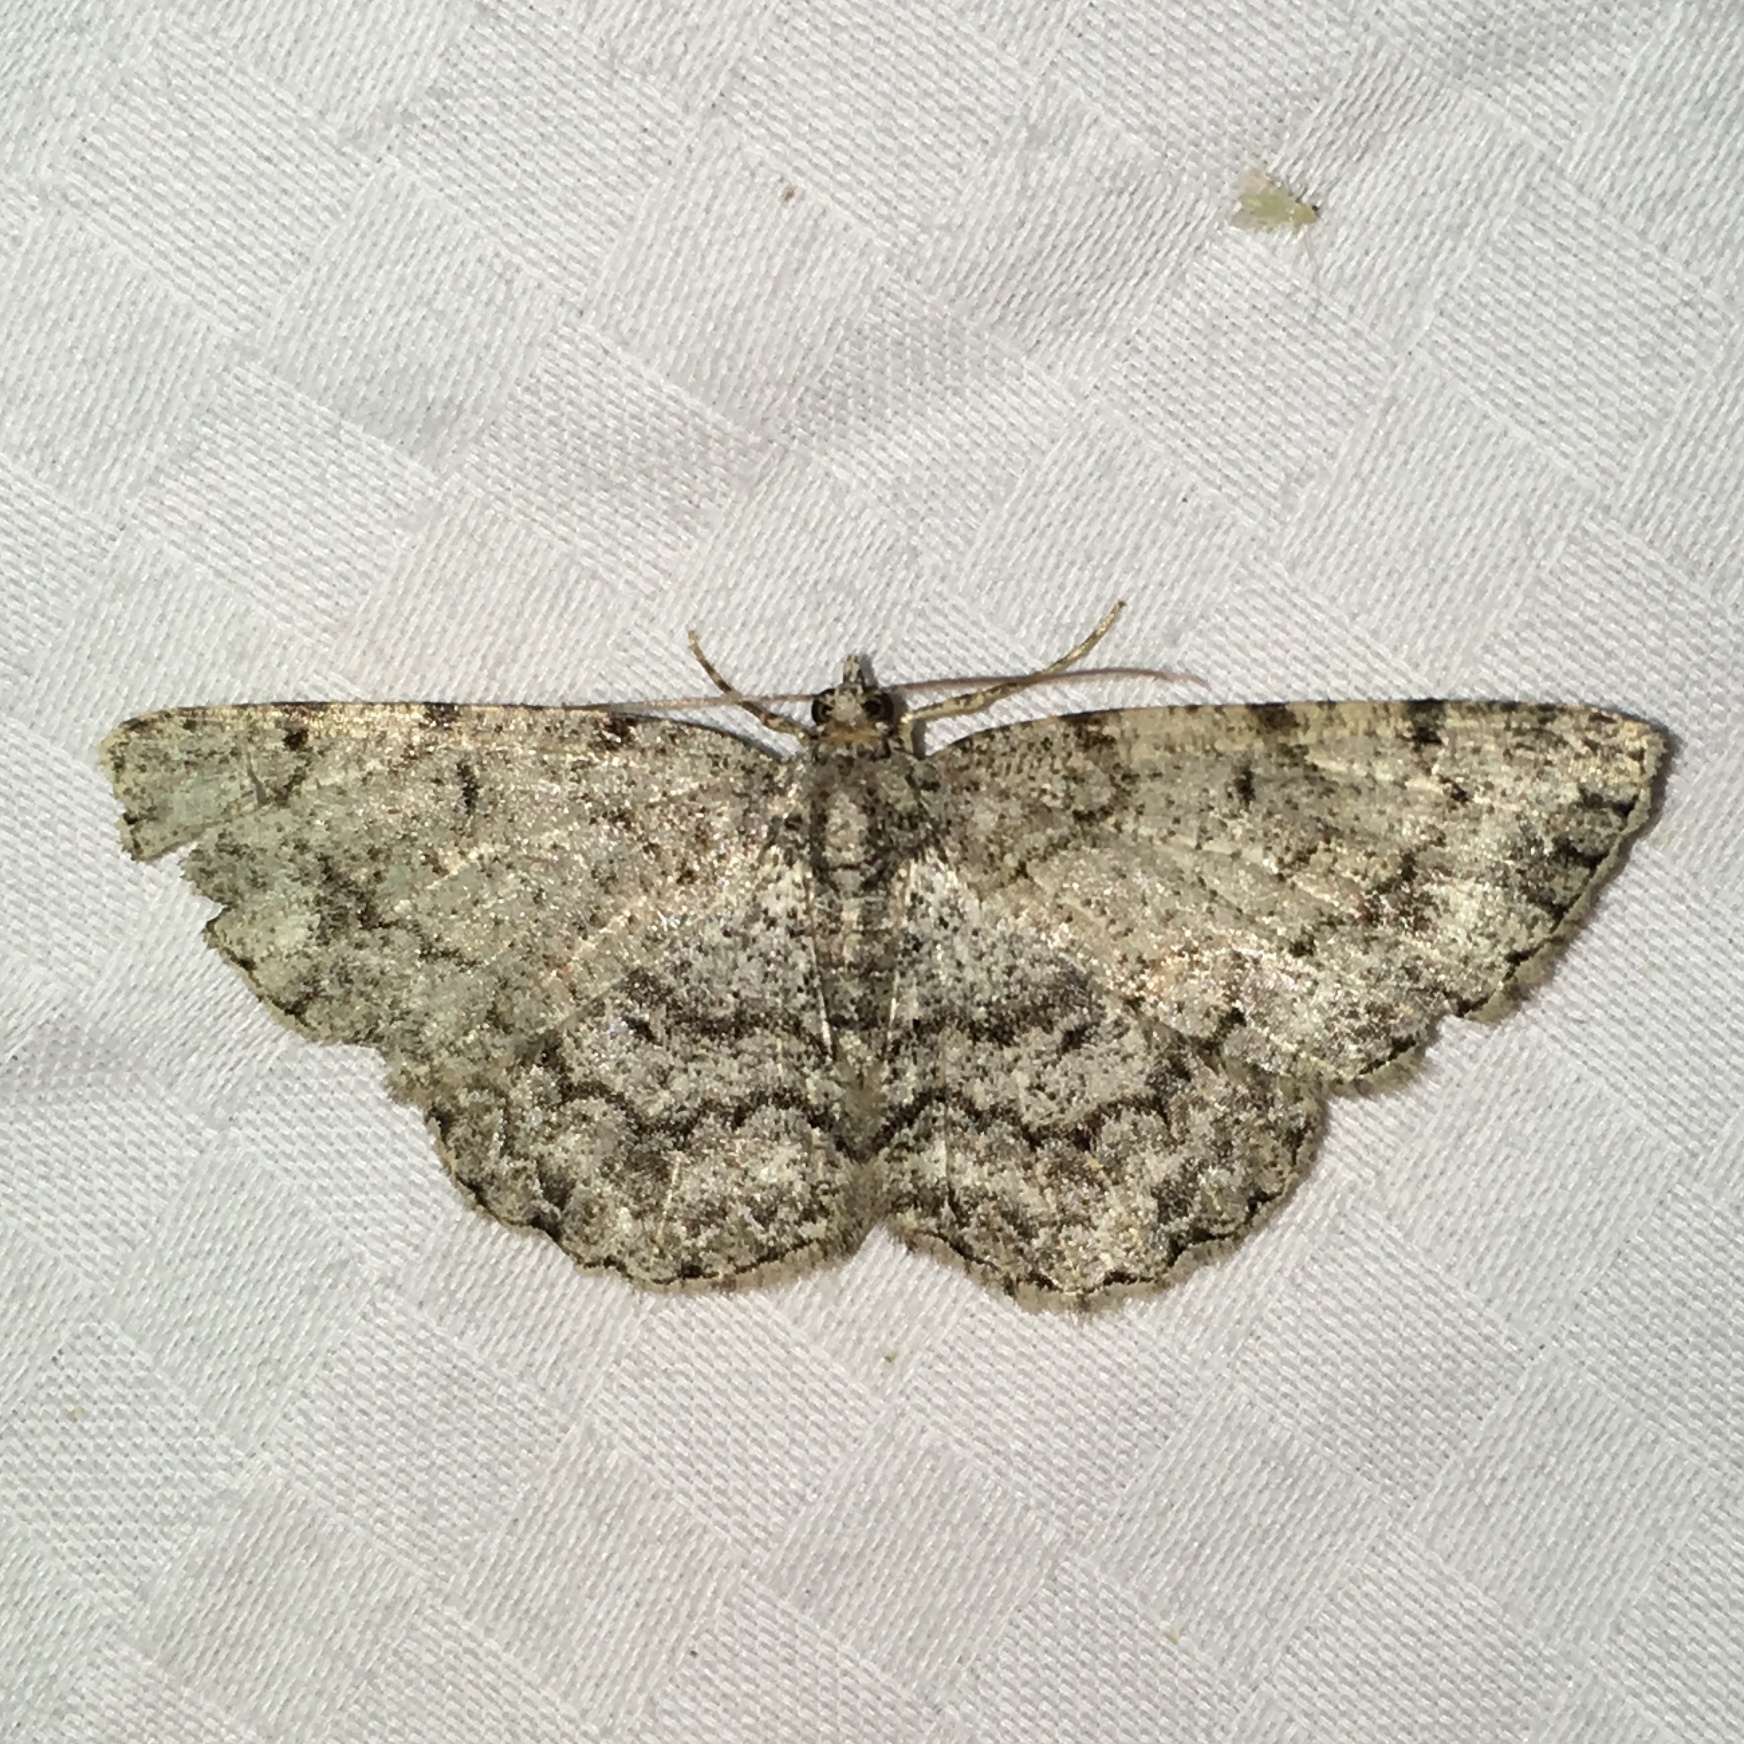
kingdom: Animalia
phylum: Arthropoda
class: Insecta
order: Lepidoptera
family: Geometridae
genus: Epimecis
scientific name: Epimecis hortaria
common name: Tulip-tree beauty
